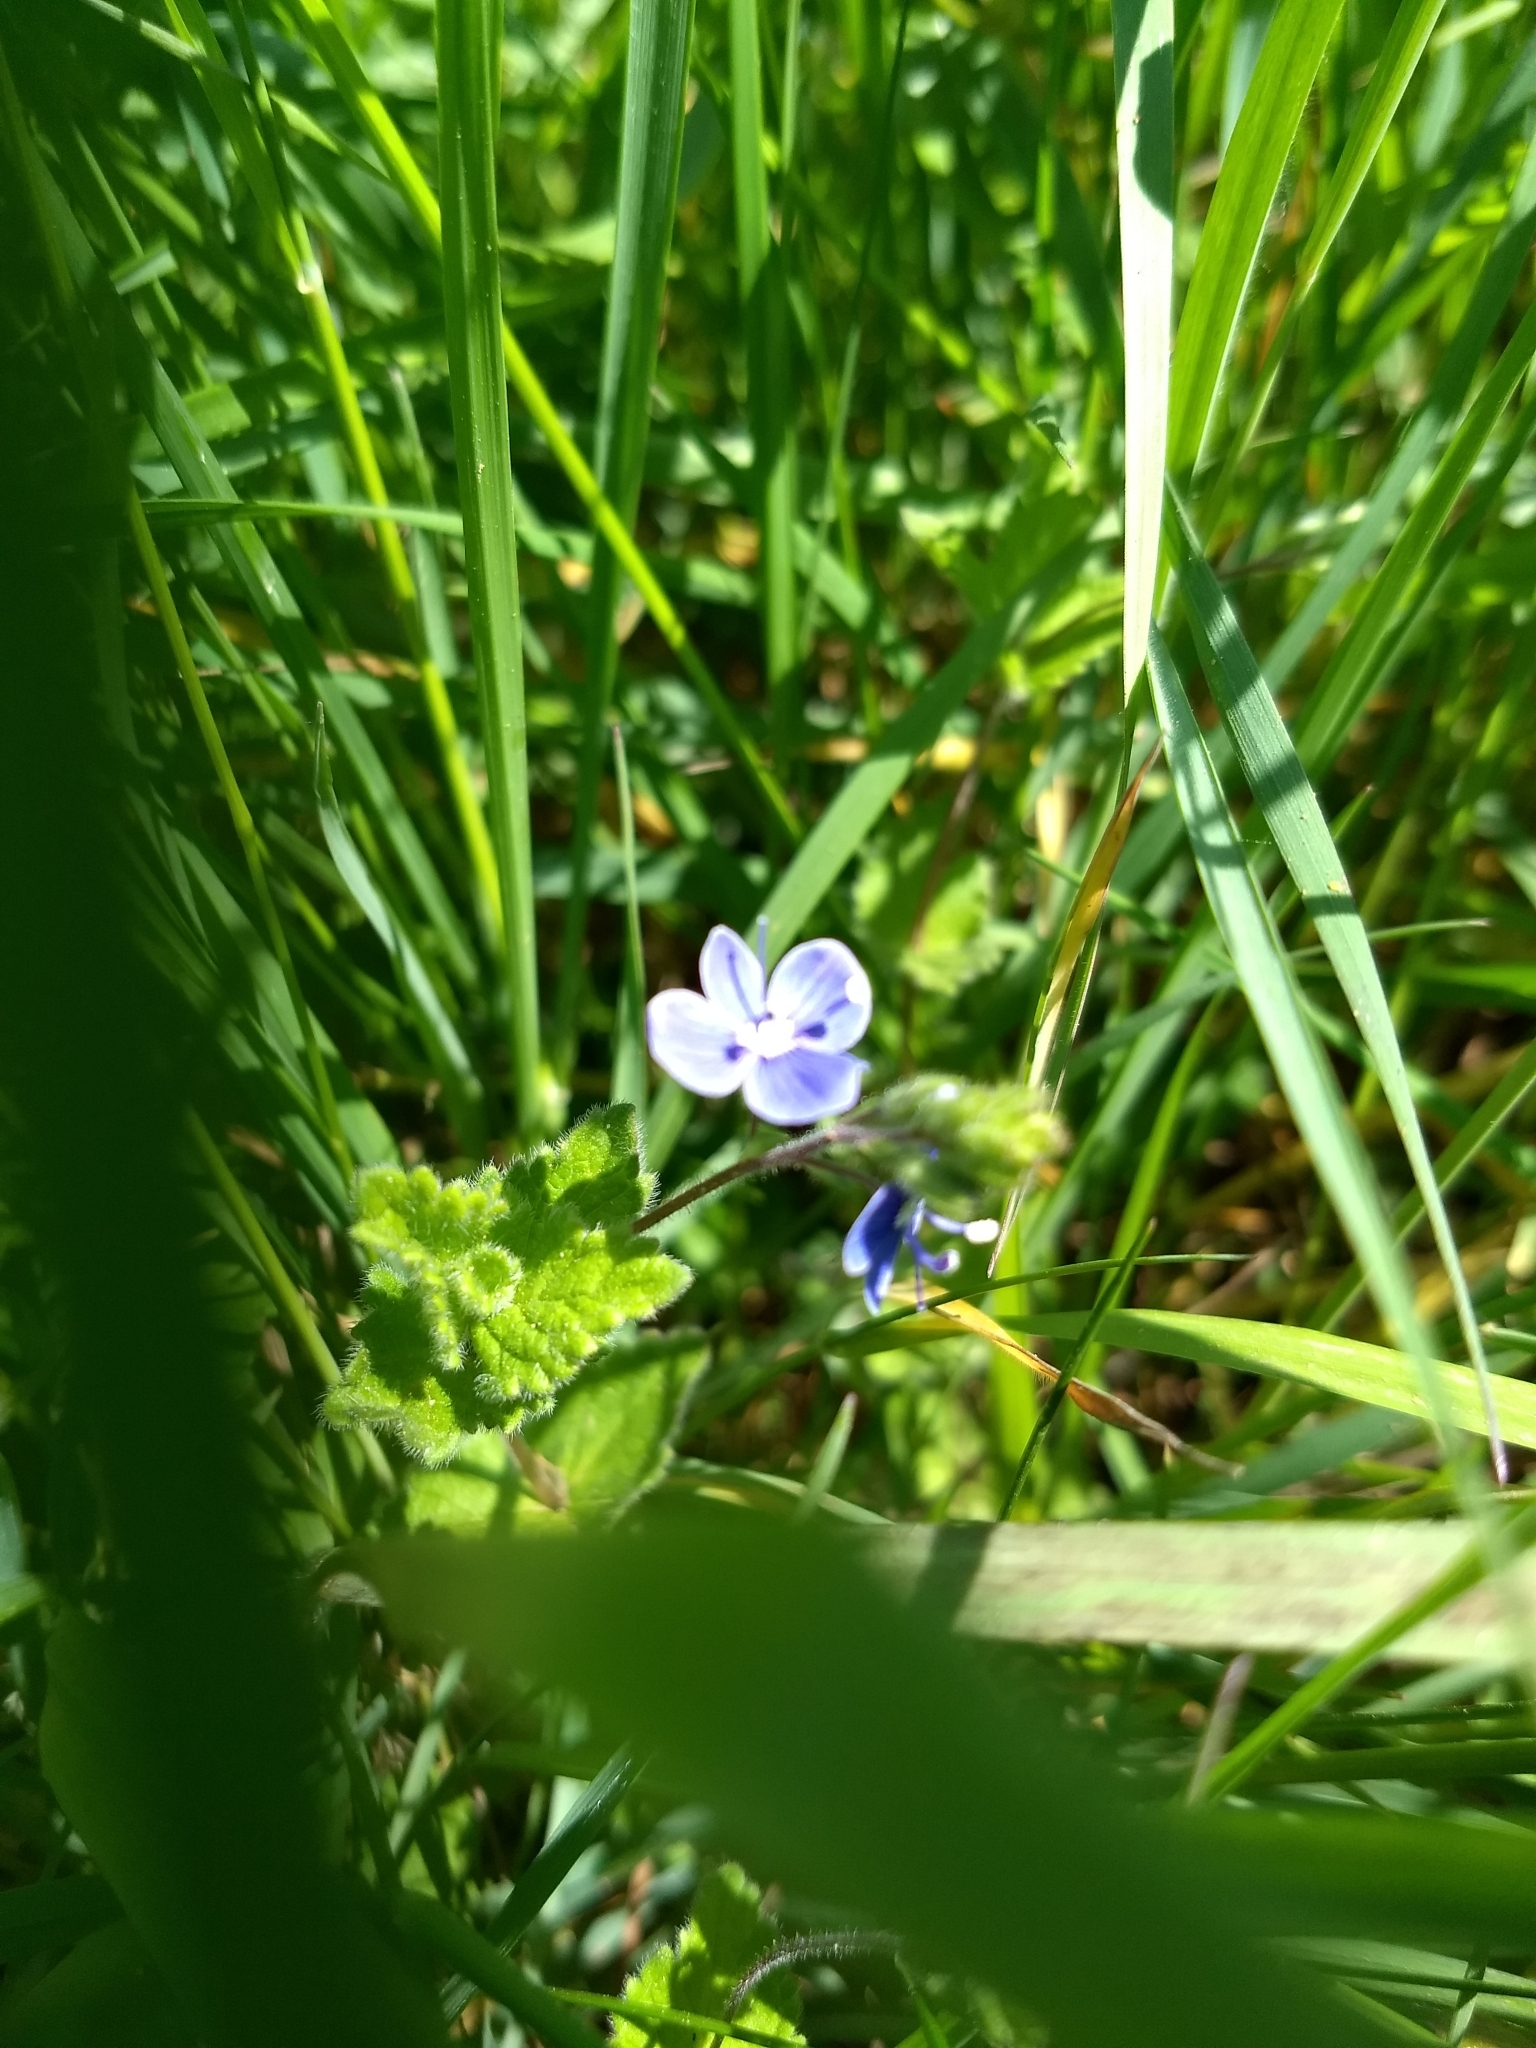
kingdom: Plantae
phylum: Tracheophyta
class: Magnoliopsida
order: Lamiales
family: Plantaginaceae
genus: Veronica
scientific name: Veronica chamaedrys
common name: Germander speedwell
